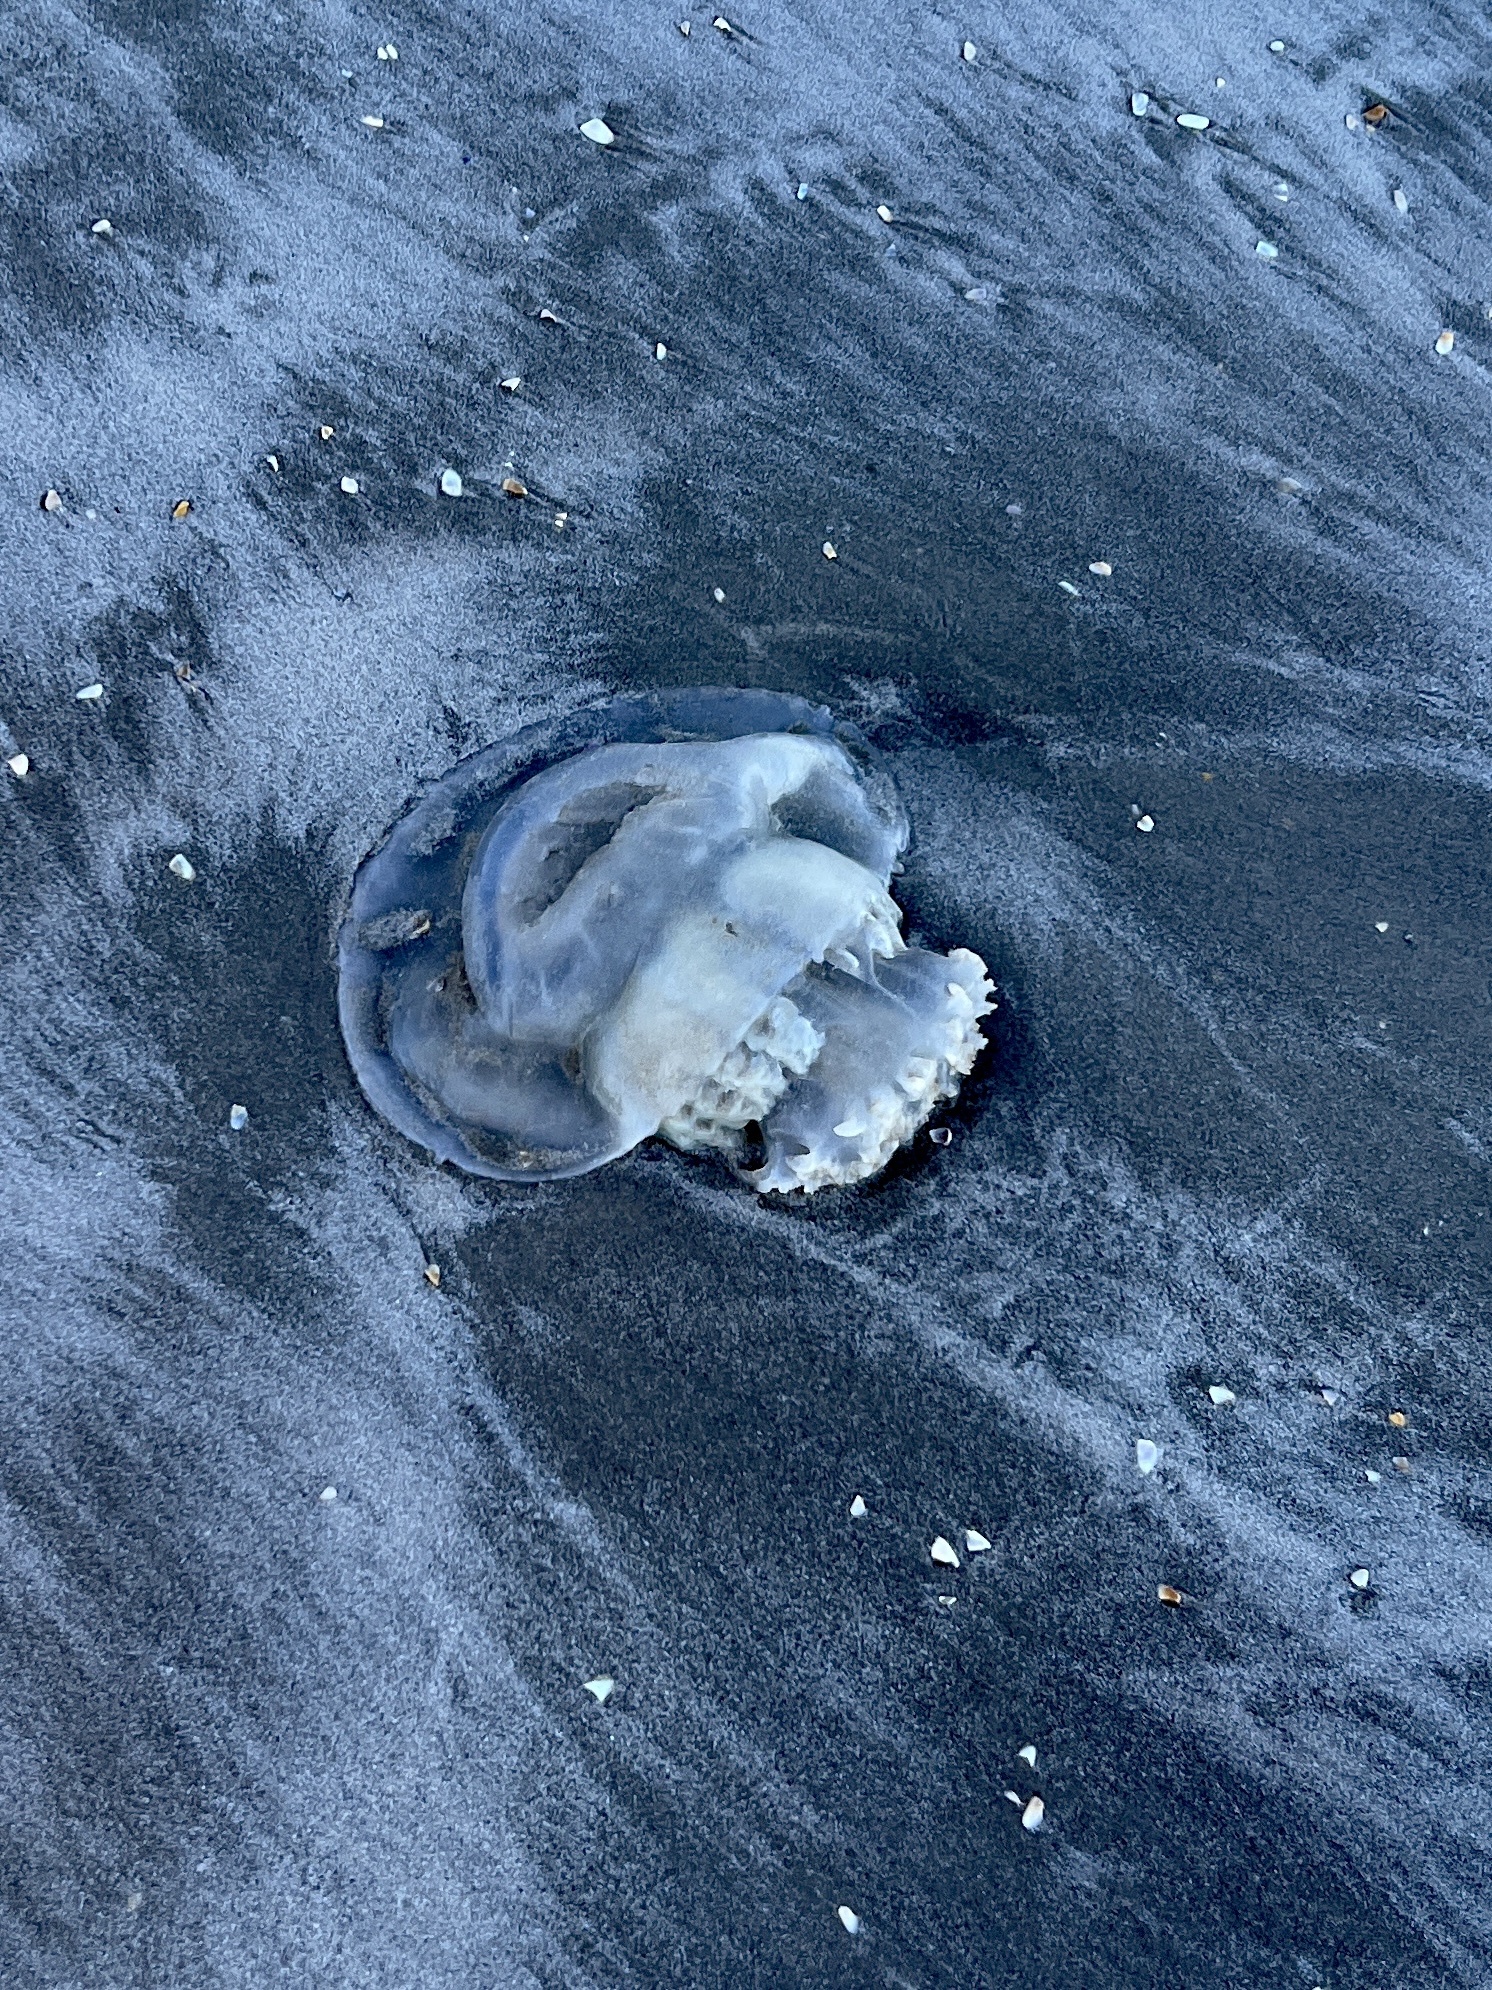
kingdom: Animalia
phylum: Cnidaria
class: Scyphozoa
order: Rhizostomeae
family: Stomolophidae
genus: Stomolophus
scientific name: Stomolophus meleagris
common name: Cabbagehead
